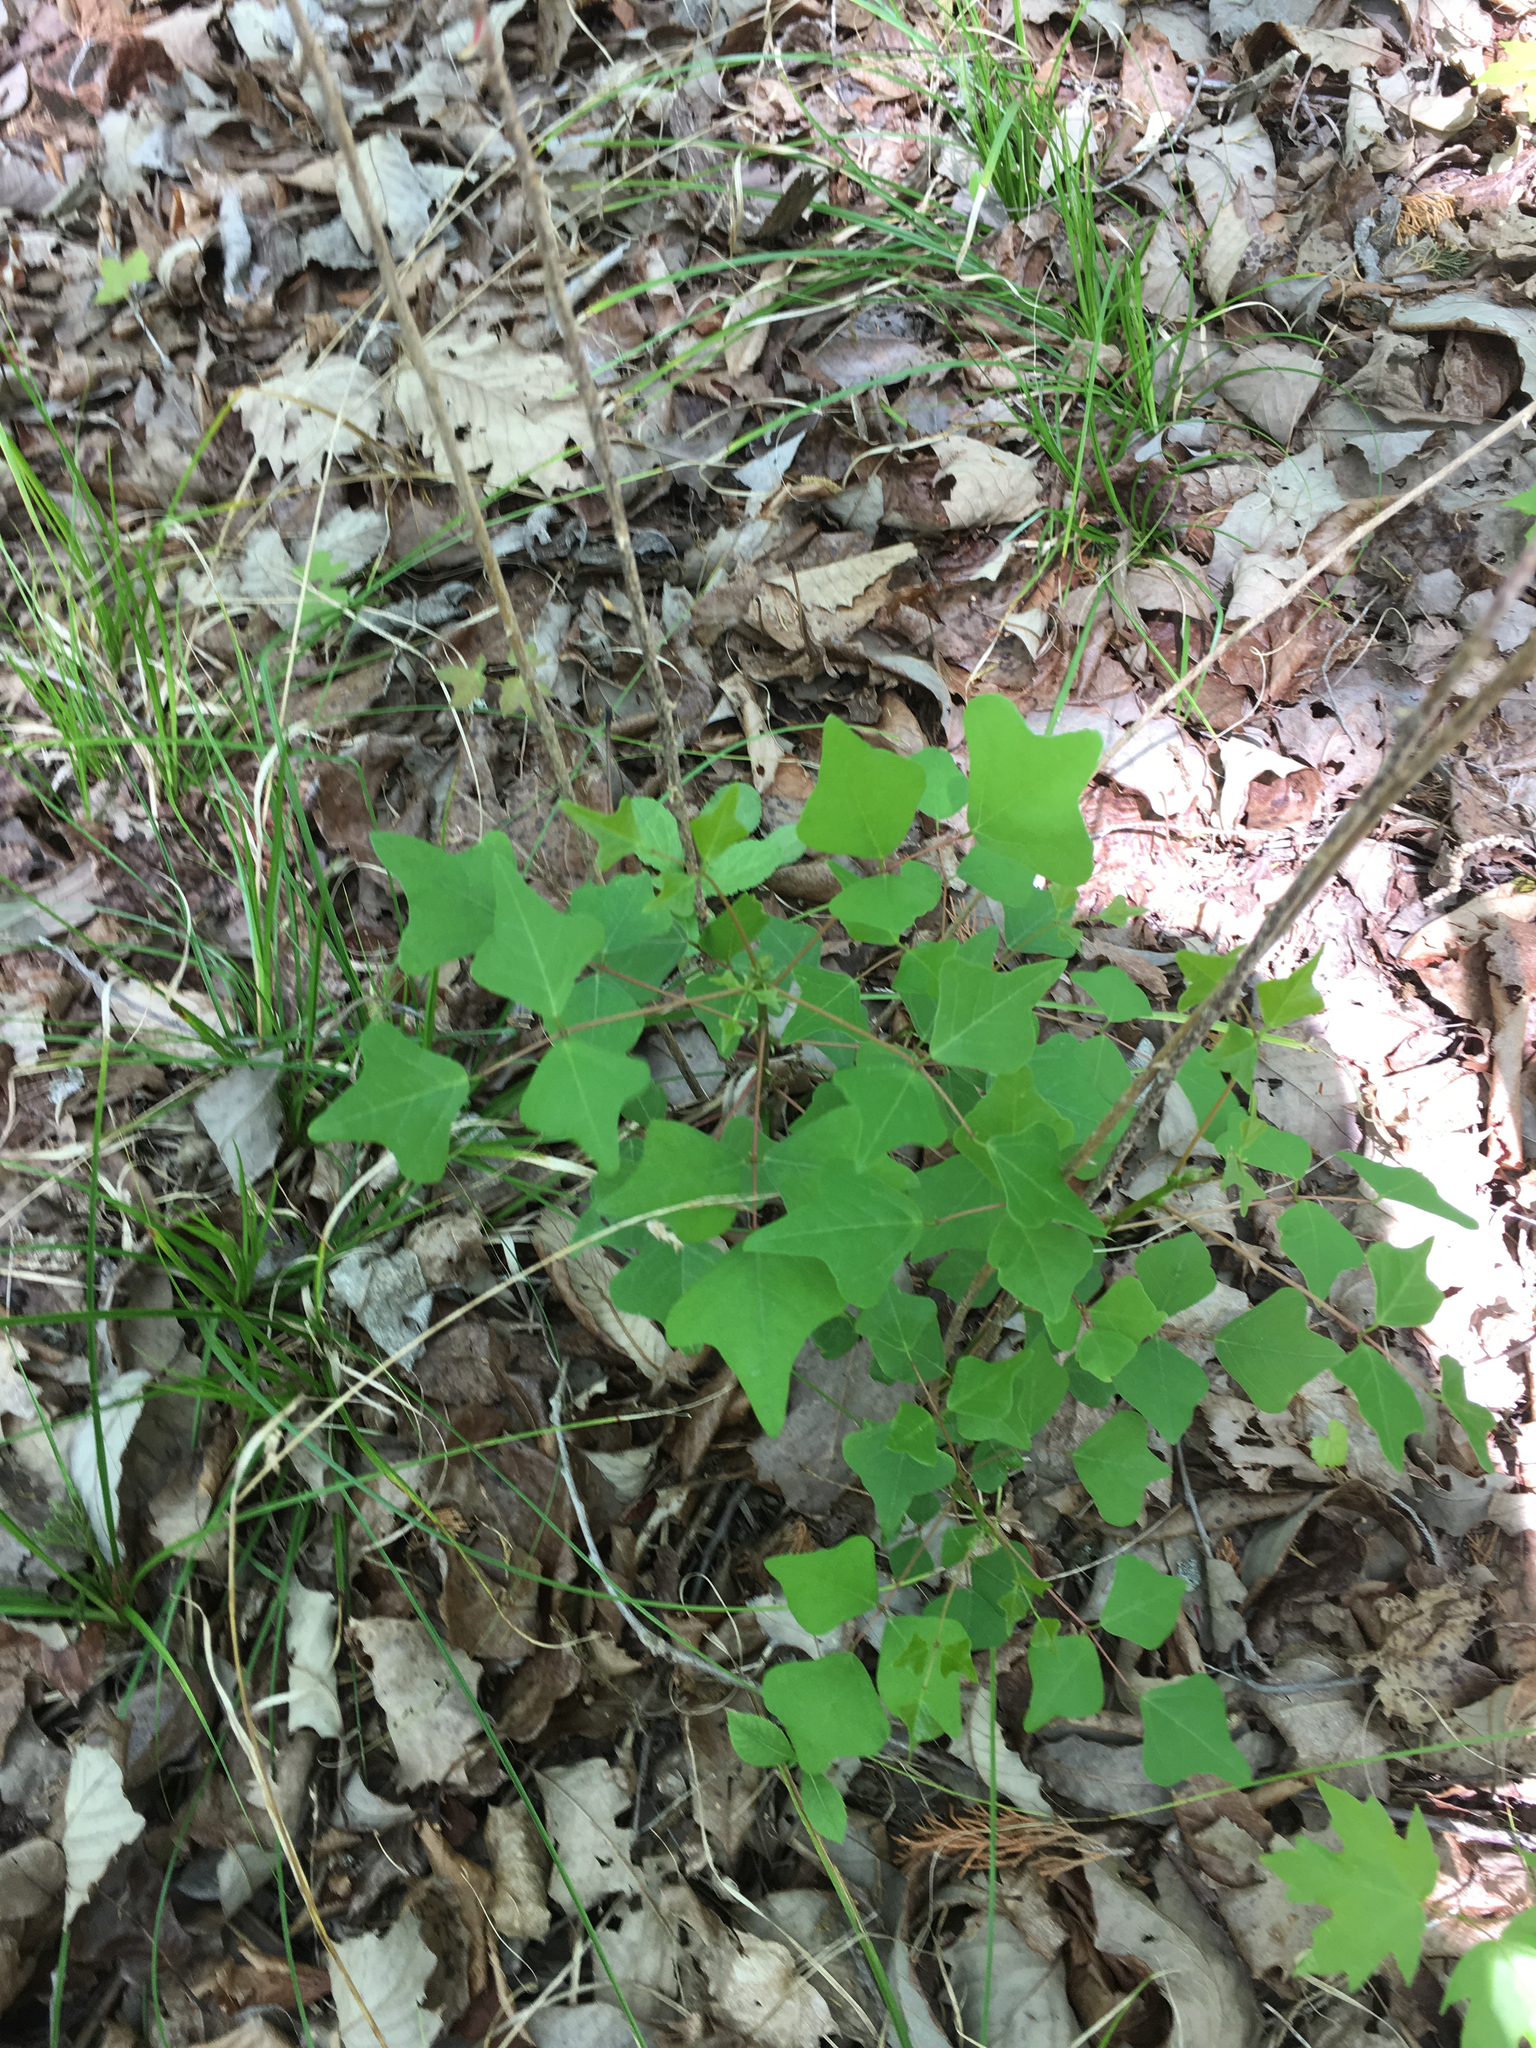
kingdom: Plantae
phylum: Tracheophyta
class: Magnoliopsida
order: Fabales
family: Fabaceae
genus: Erythrina
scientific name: Erythrina herbacea
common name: Coral-bean
